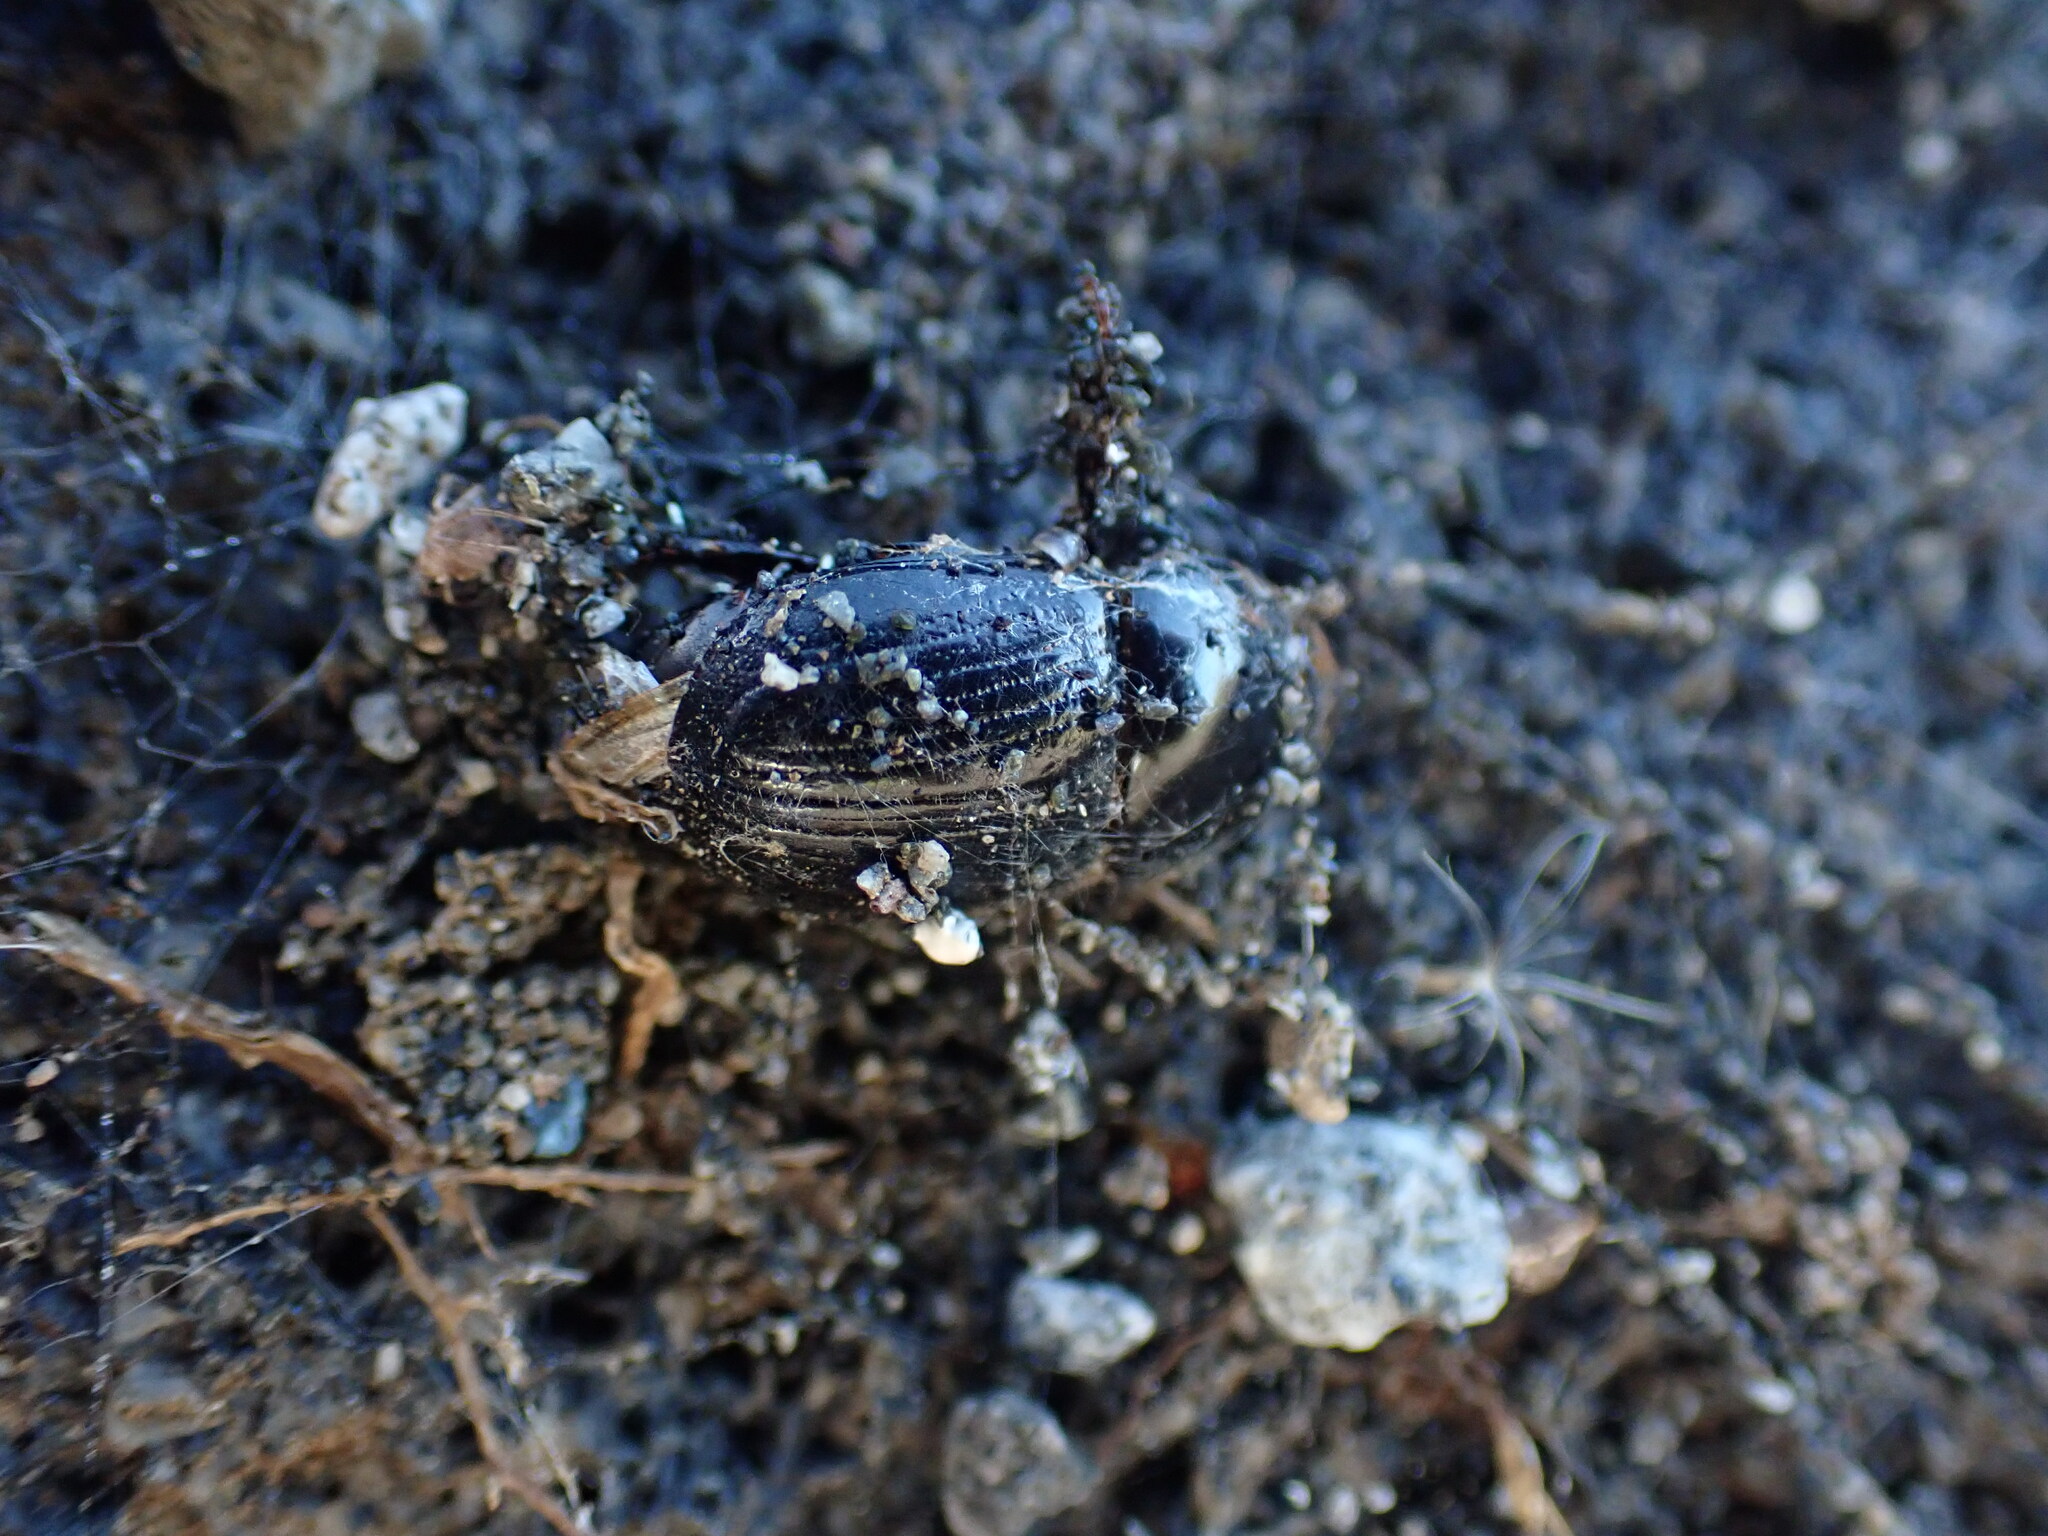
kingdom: Animalia
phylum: Arthropoda
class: Insecta
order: Coleoptera
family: Scarabaeidae
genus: Heteronychus
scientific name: Heteronychus arator
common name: African black beetle
